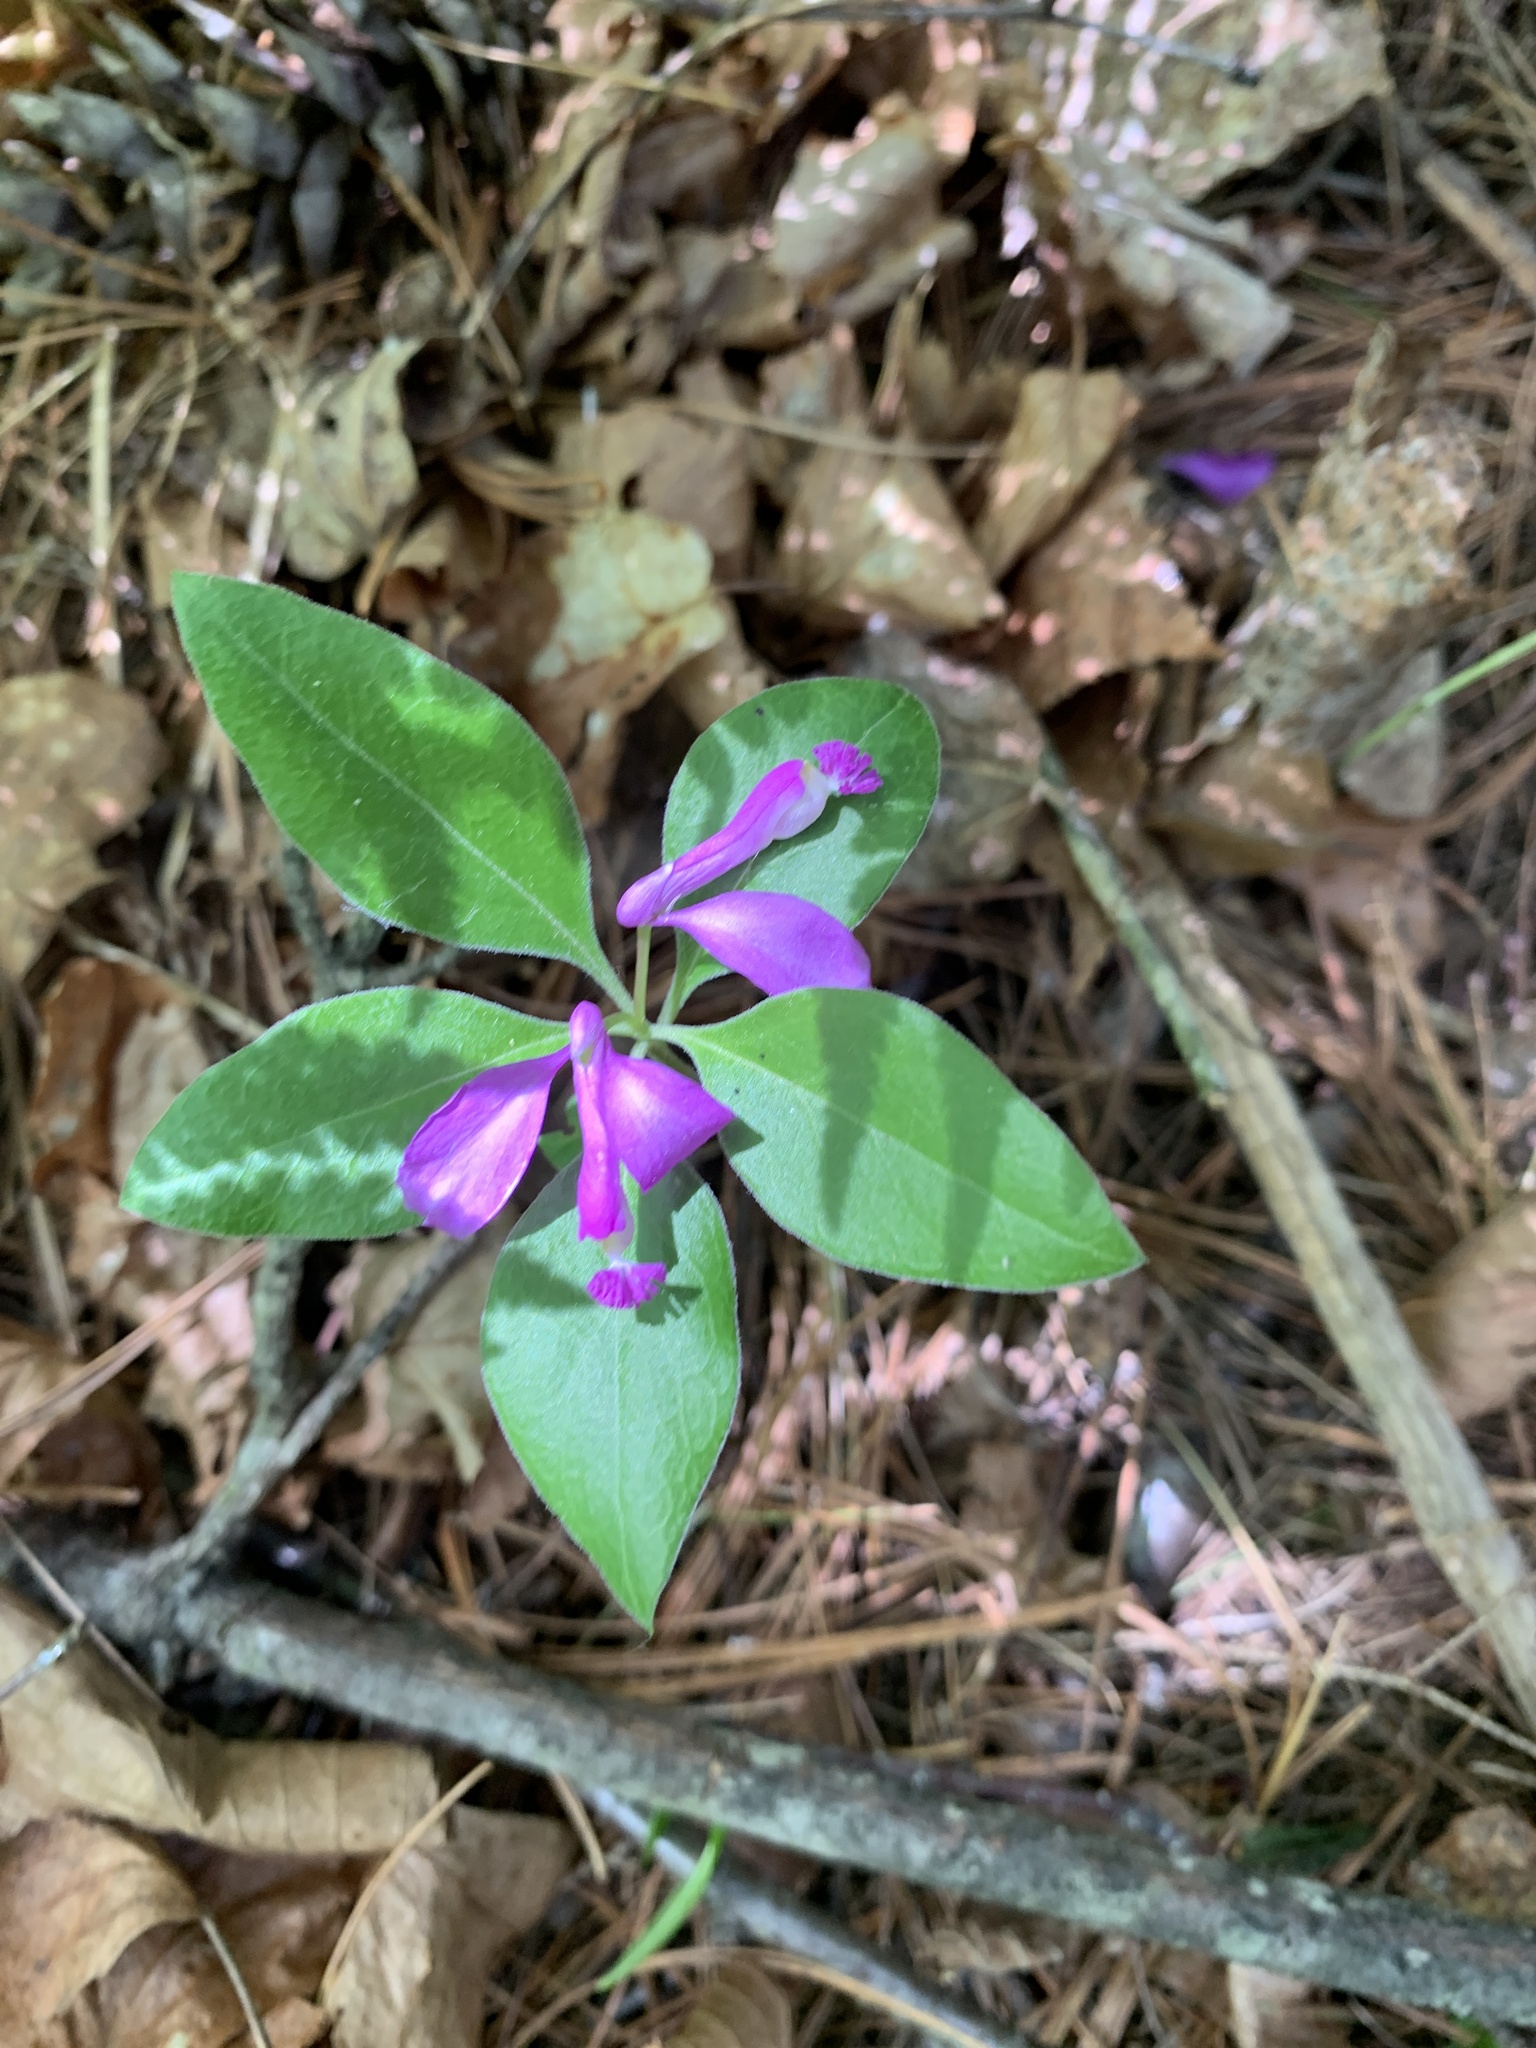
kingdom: Plantae
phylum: Tracheophyta
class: Magnoliopsida
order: Fabales
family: Polygalaceae
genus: Polygaloides
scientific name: Polygaloides paucifolia
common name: Bird-on-the-wing
